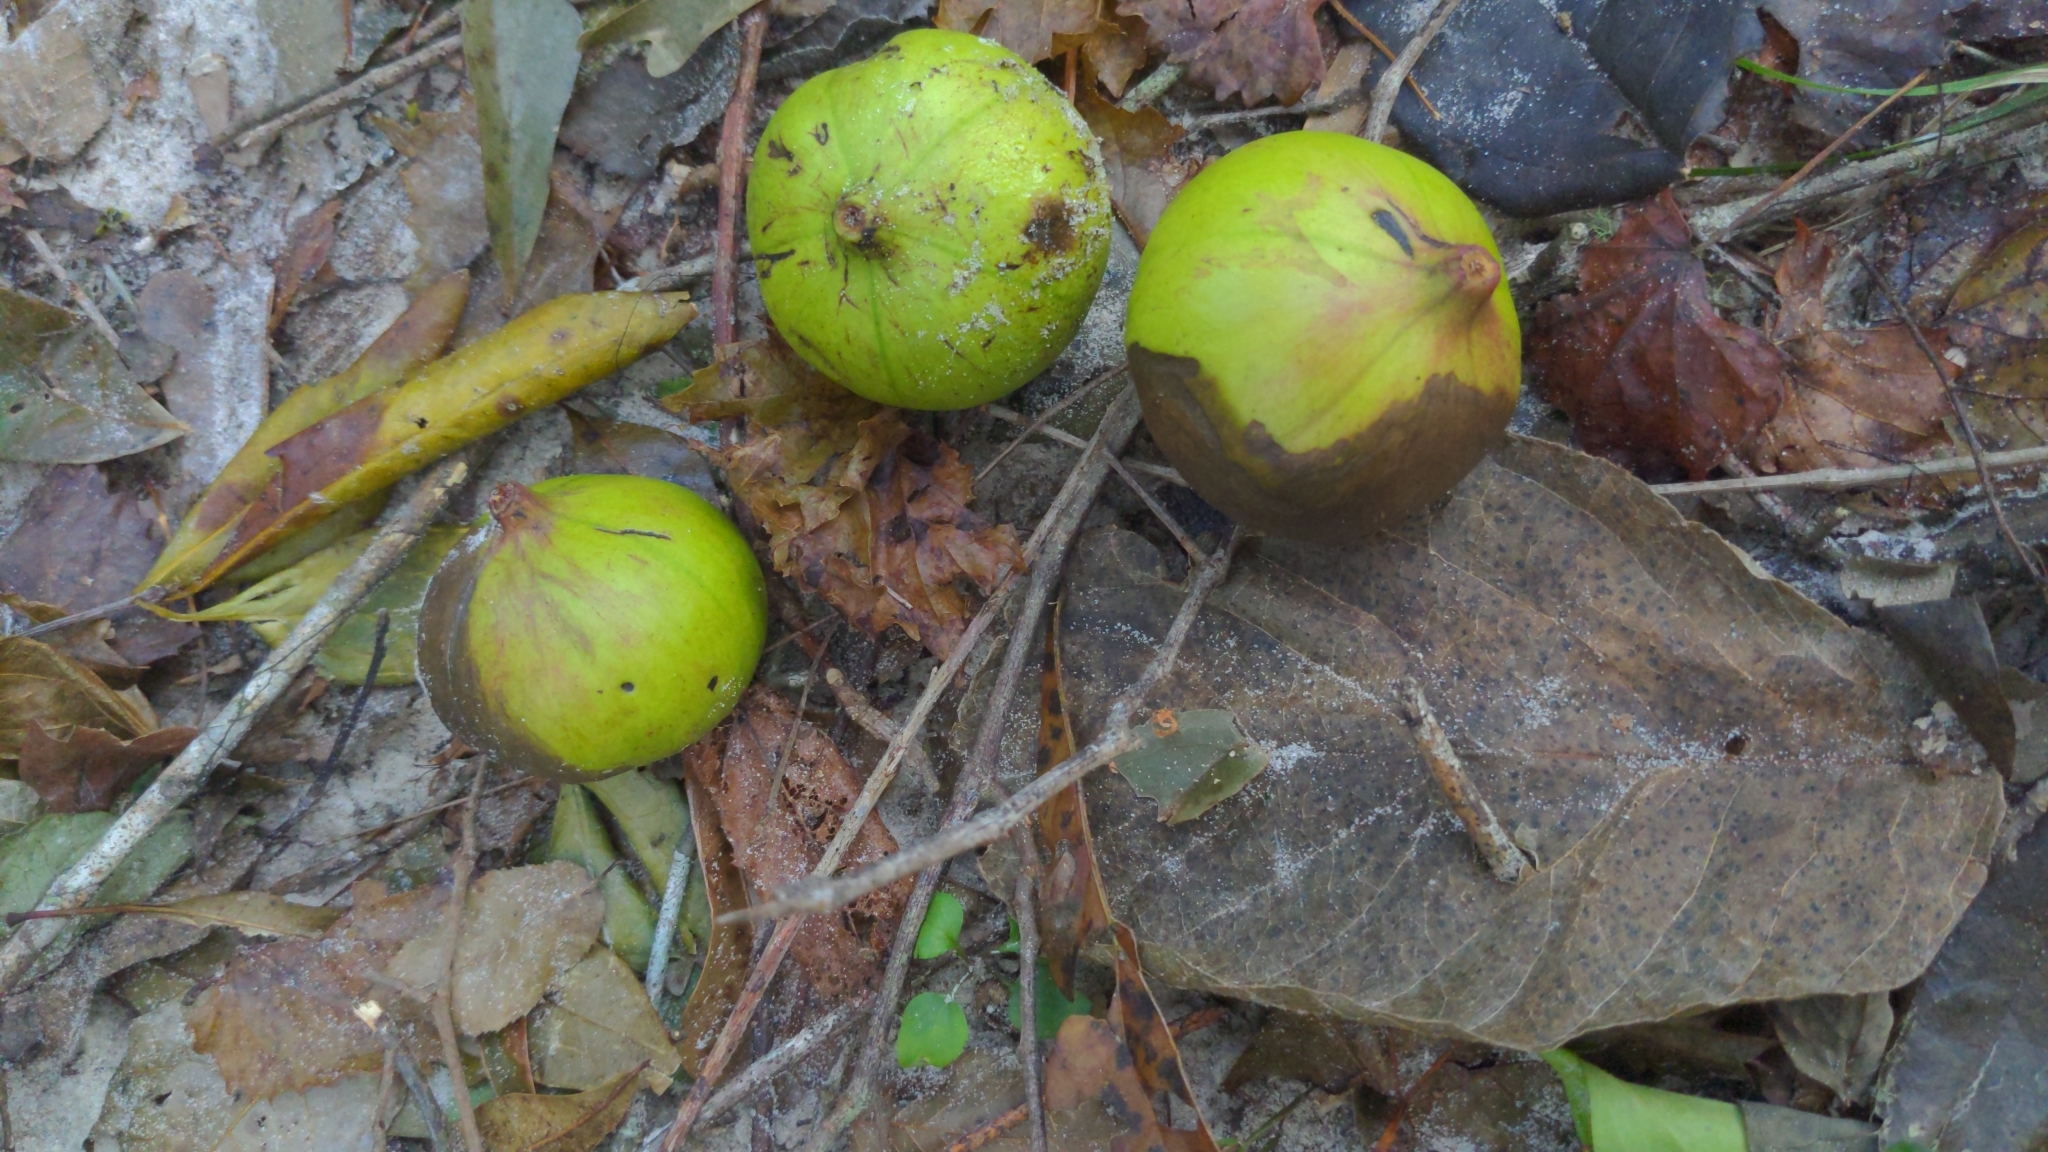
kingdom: Plantae
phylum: Tracheophyta
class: Magnoliopsida
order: Malpighiales
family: Euphorbiaceae
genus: Vernicia
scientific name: Vernicia fordii
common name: Tungoil tree
